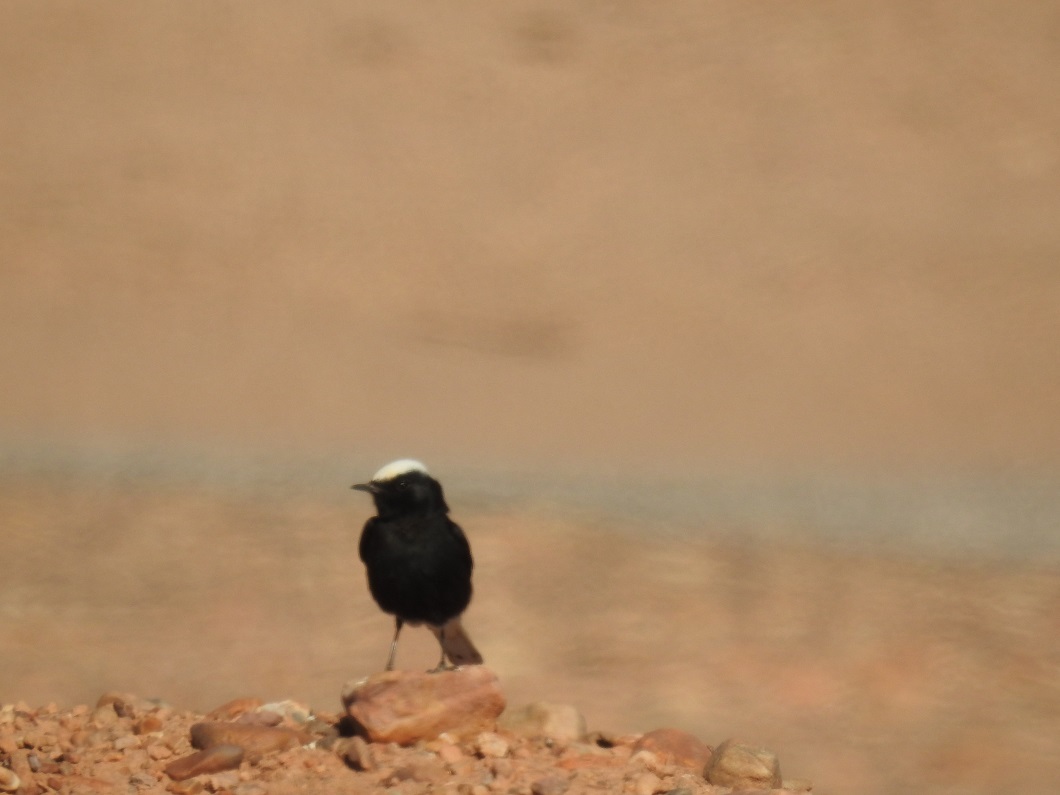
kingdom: Animalia
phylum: Chordata
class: Aves
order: Passeriformes
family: Muscicapidae
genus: Oenanthe
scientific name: Oenanthe leucopyga
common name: White-crowned wheatear
